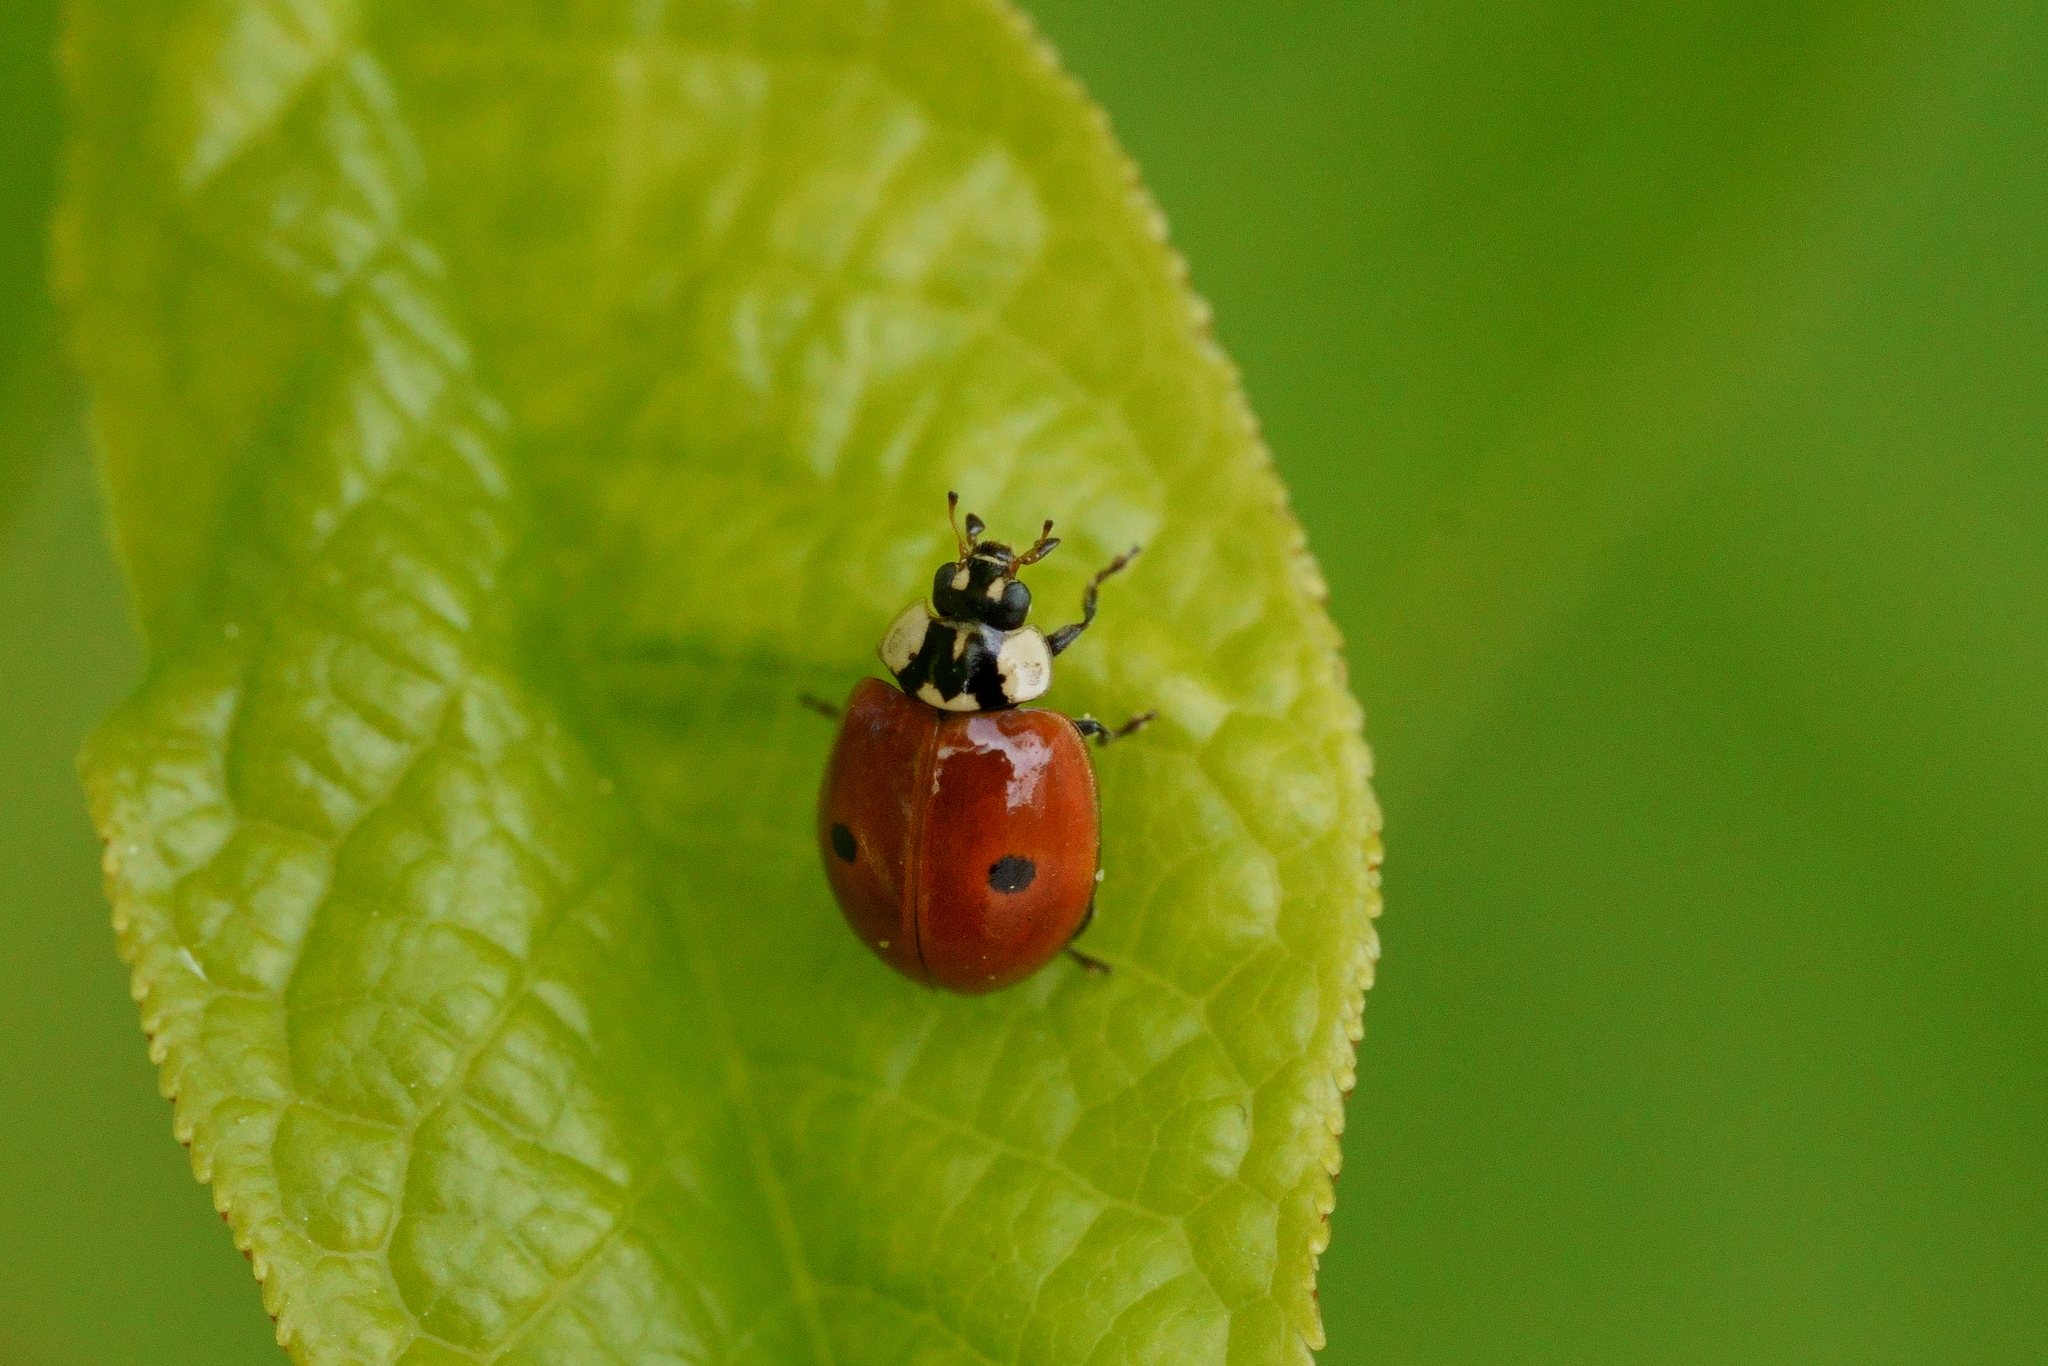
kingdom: Animalia
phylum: Arthropoda
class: Insecta
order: Coleoptera
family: Coccinellidae
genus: Adalia
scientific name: Adalia bipunctata
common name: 2-spot ladybird
